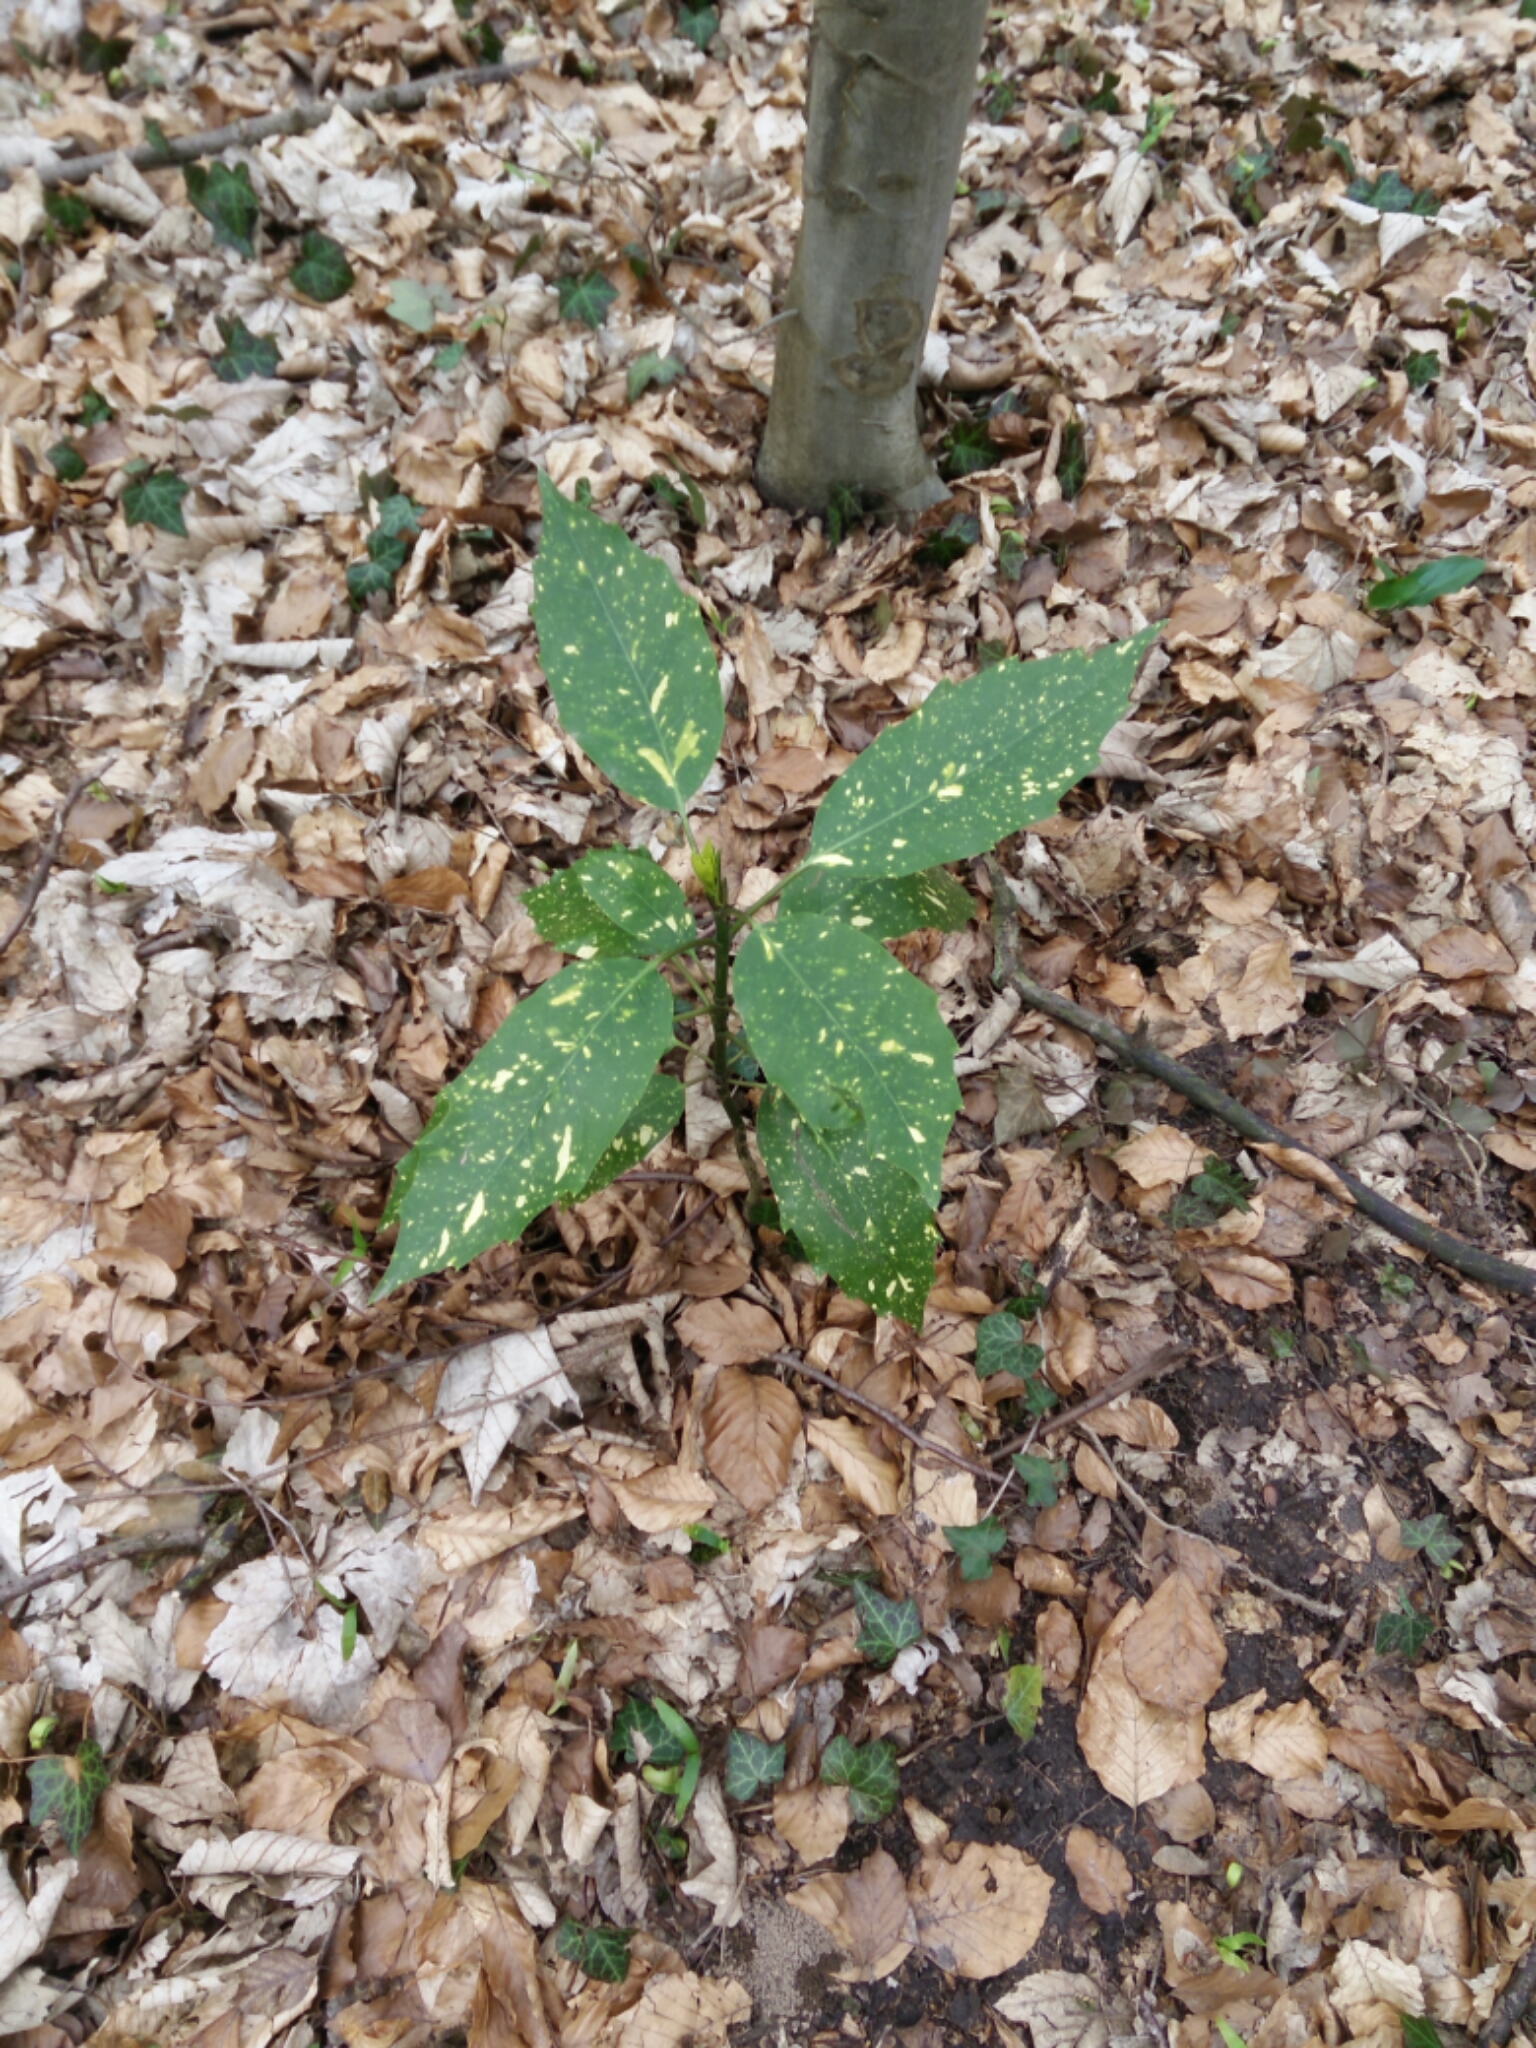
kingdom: Plantae
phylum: Tracheophyta
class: Magnoliopsida
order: Garryales
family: Garryaceae
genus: Aucuba
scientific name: Aucuba japonica
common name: Spotted-laurel
